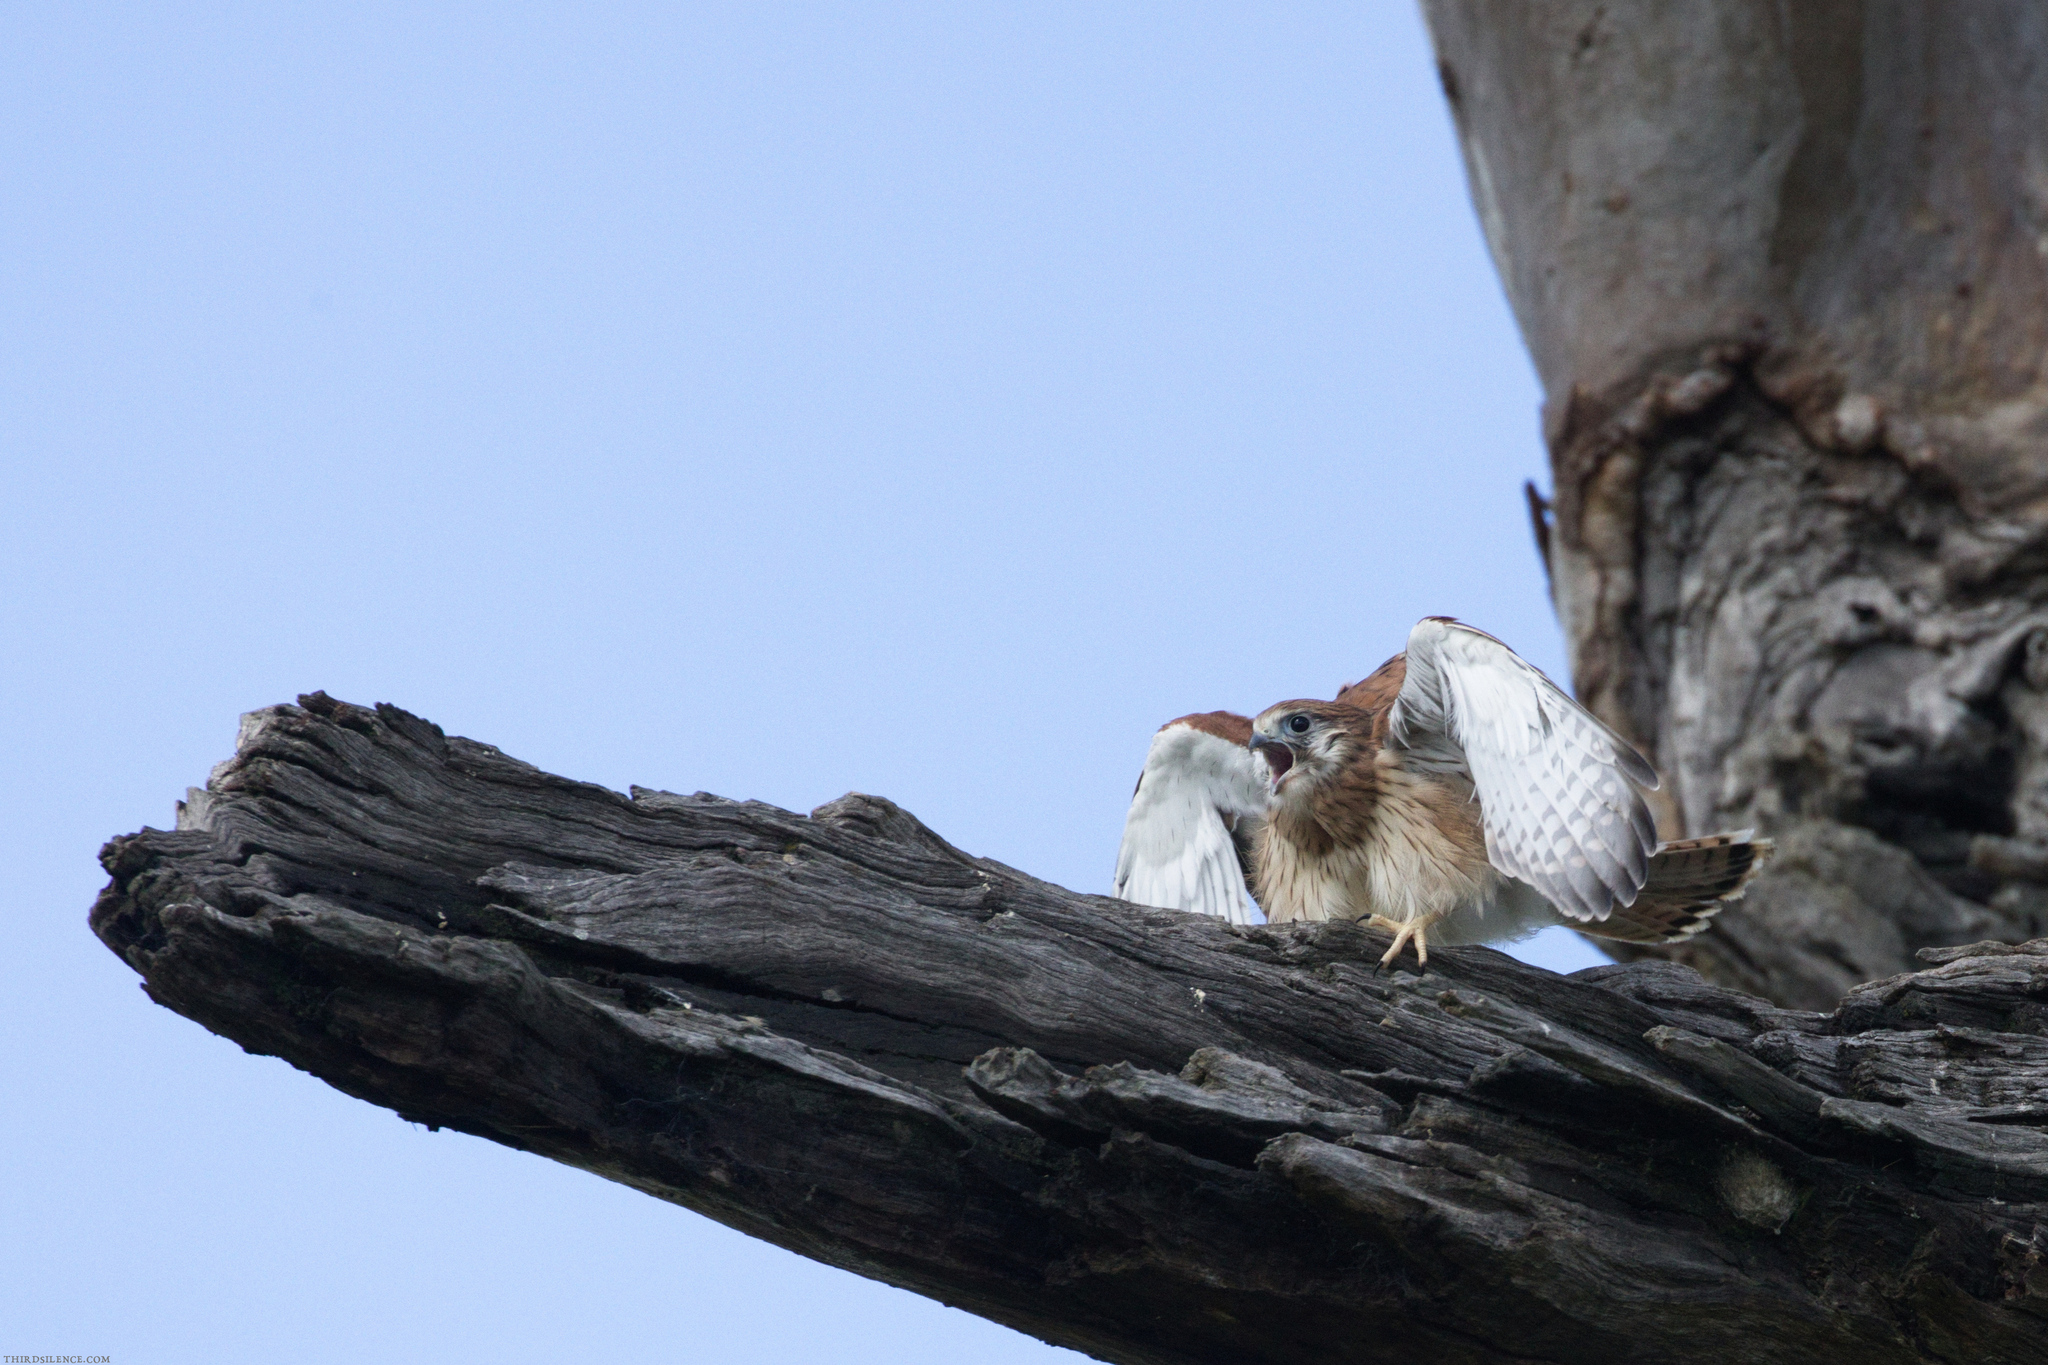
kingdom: Animalia
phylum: Chordata
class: Aves
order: Falconiformes
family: Falconidae
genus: Falco
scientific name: Falco cenchroides
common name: Nankeen kestrel
